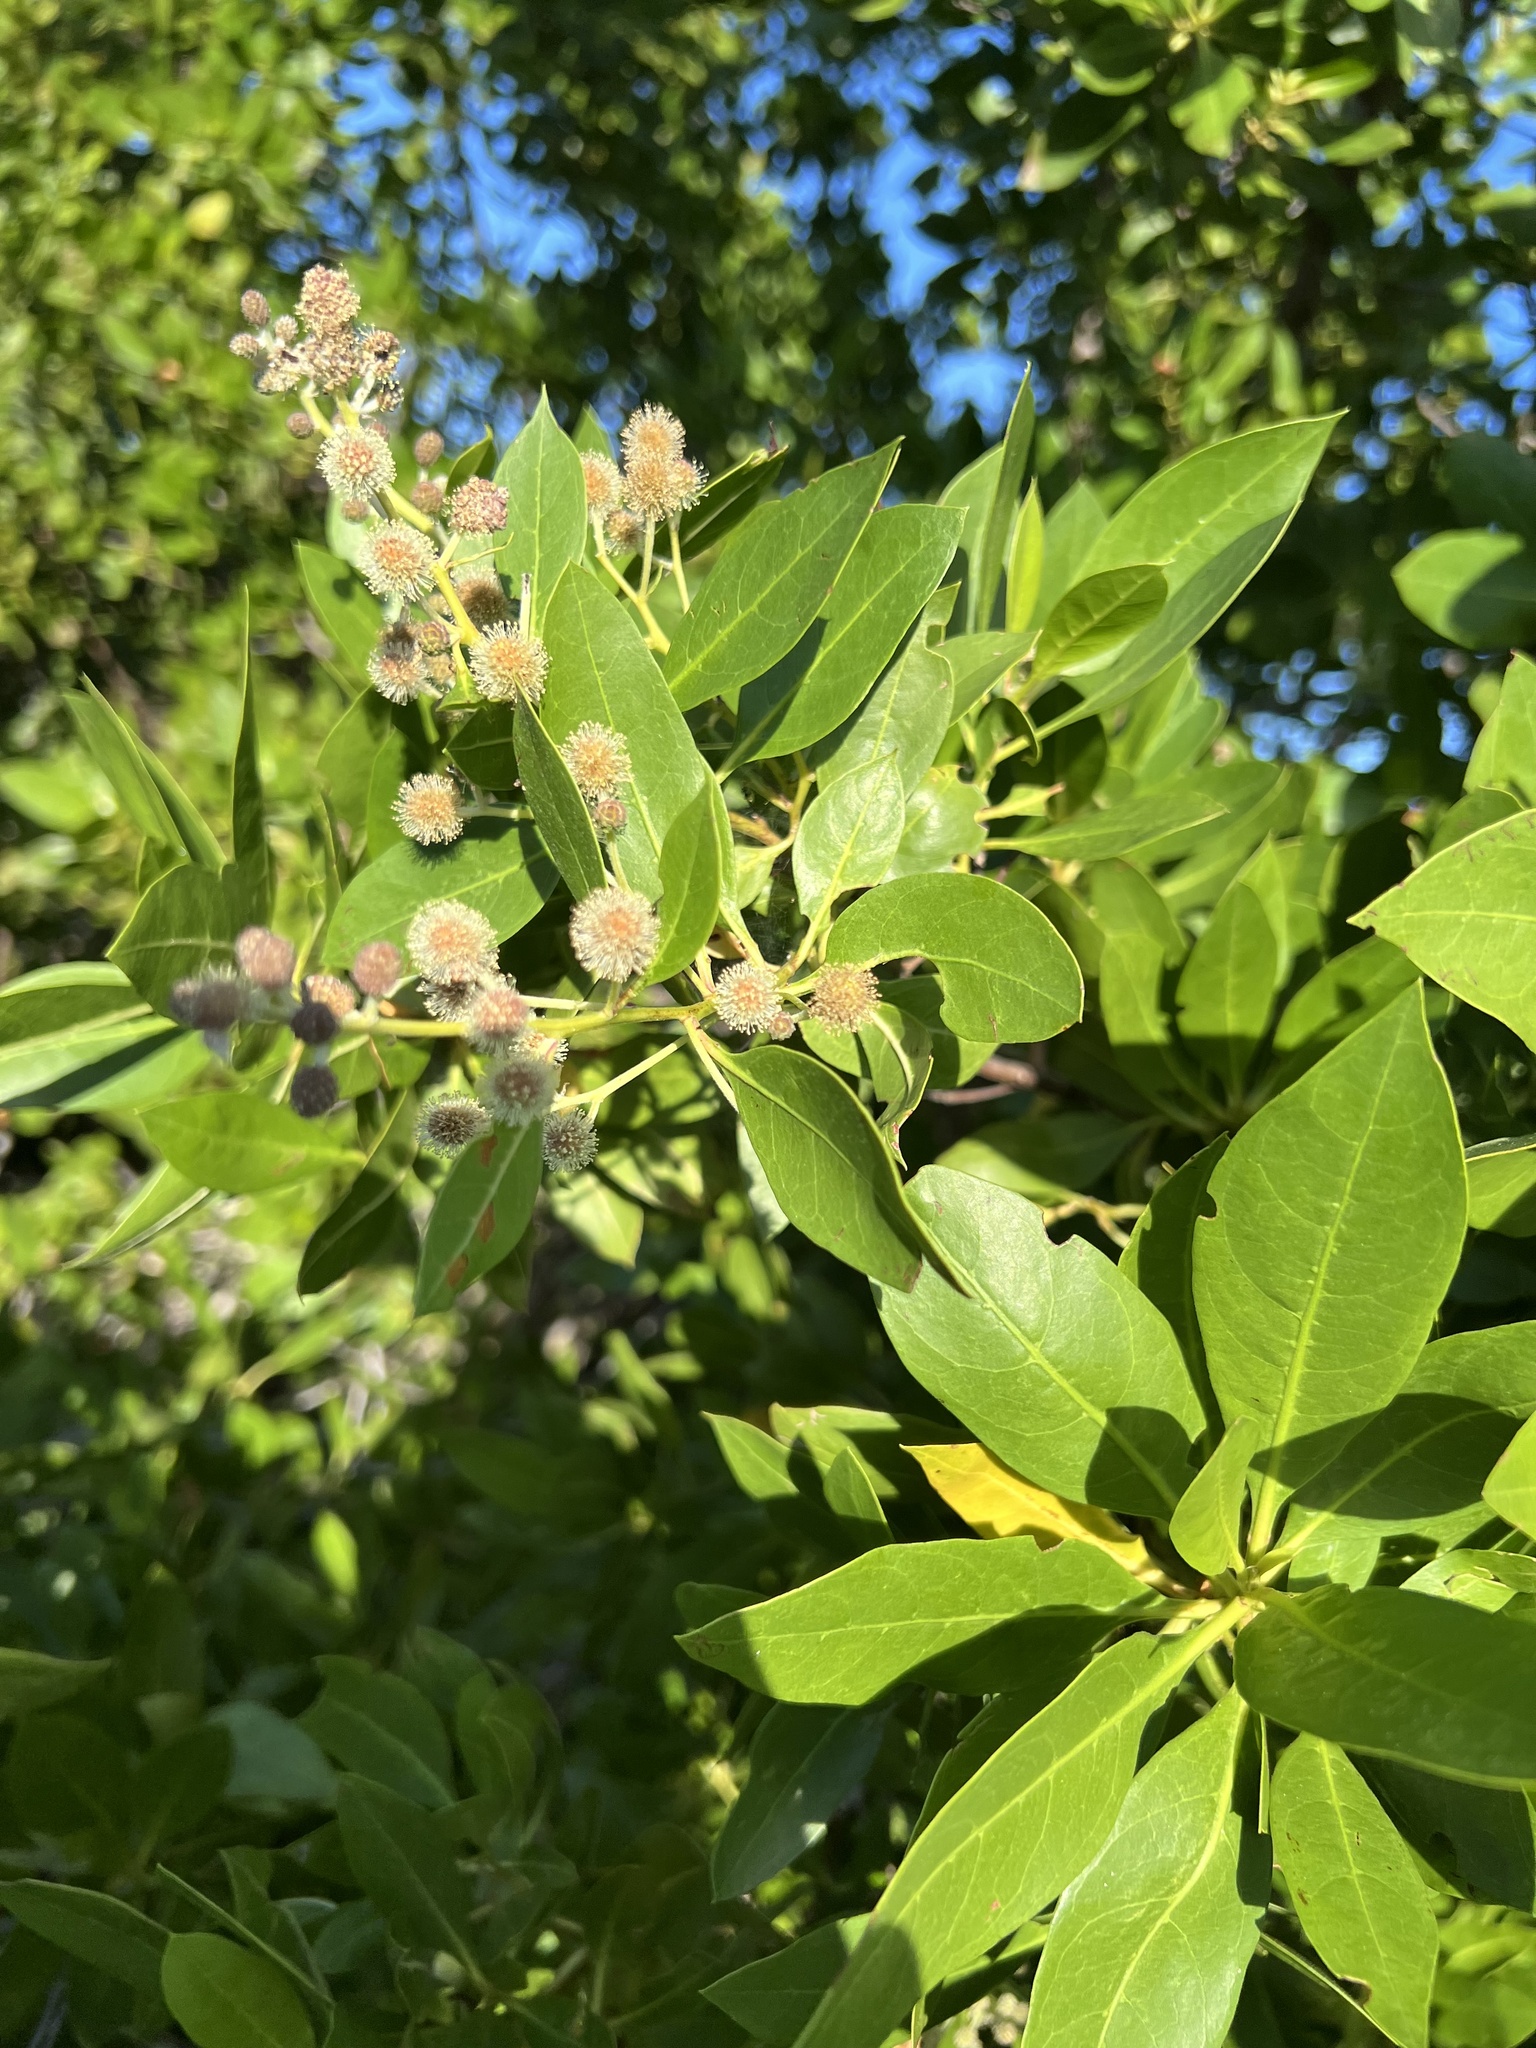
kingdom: Plantae
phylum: Tracheophyta
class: Magnoliopsida
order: Myrtales
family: Combretaceae
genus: Conocarpus
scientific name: Conocarpus erectus
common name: Button mangrove
